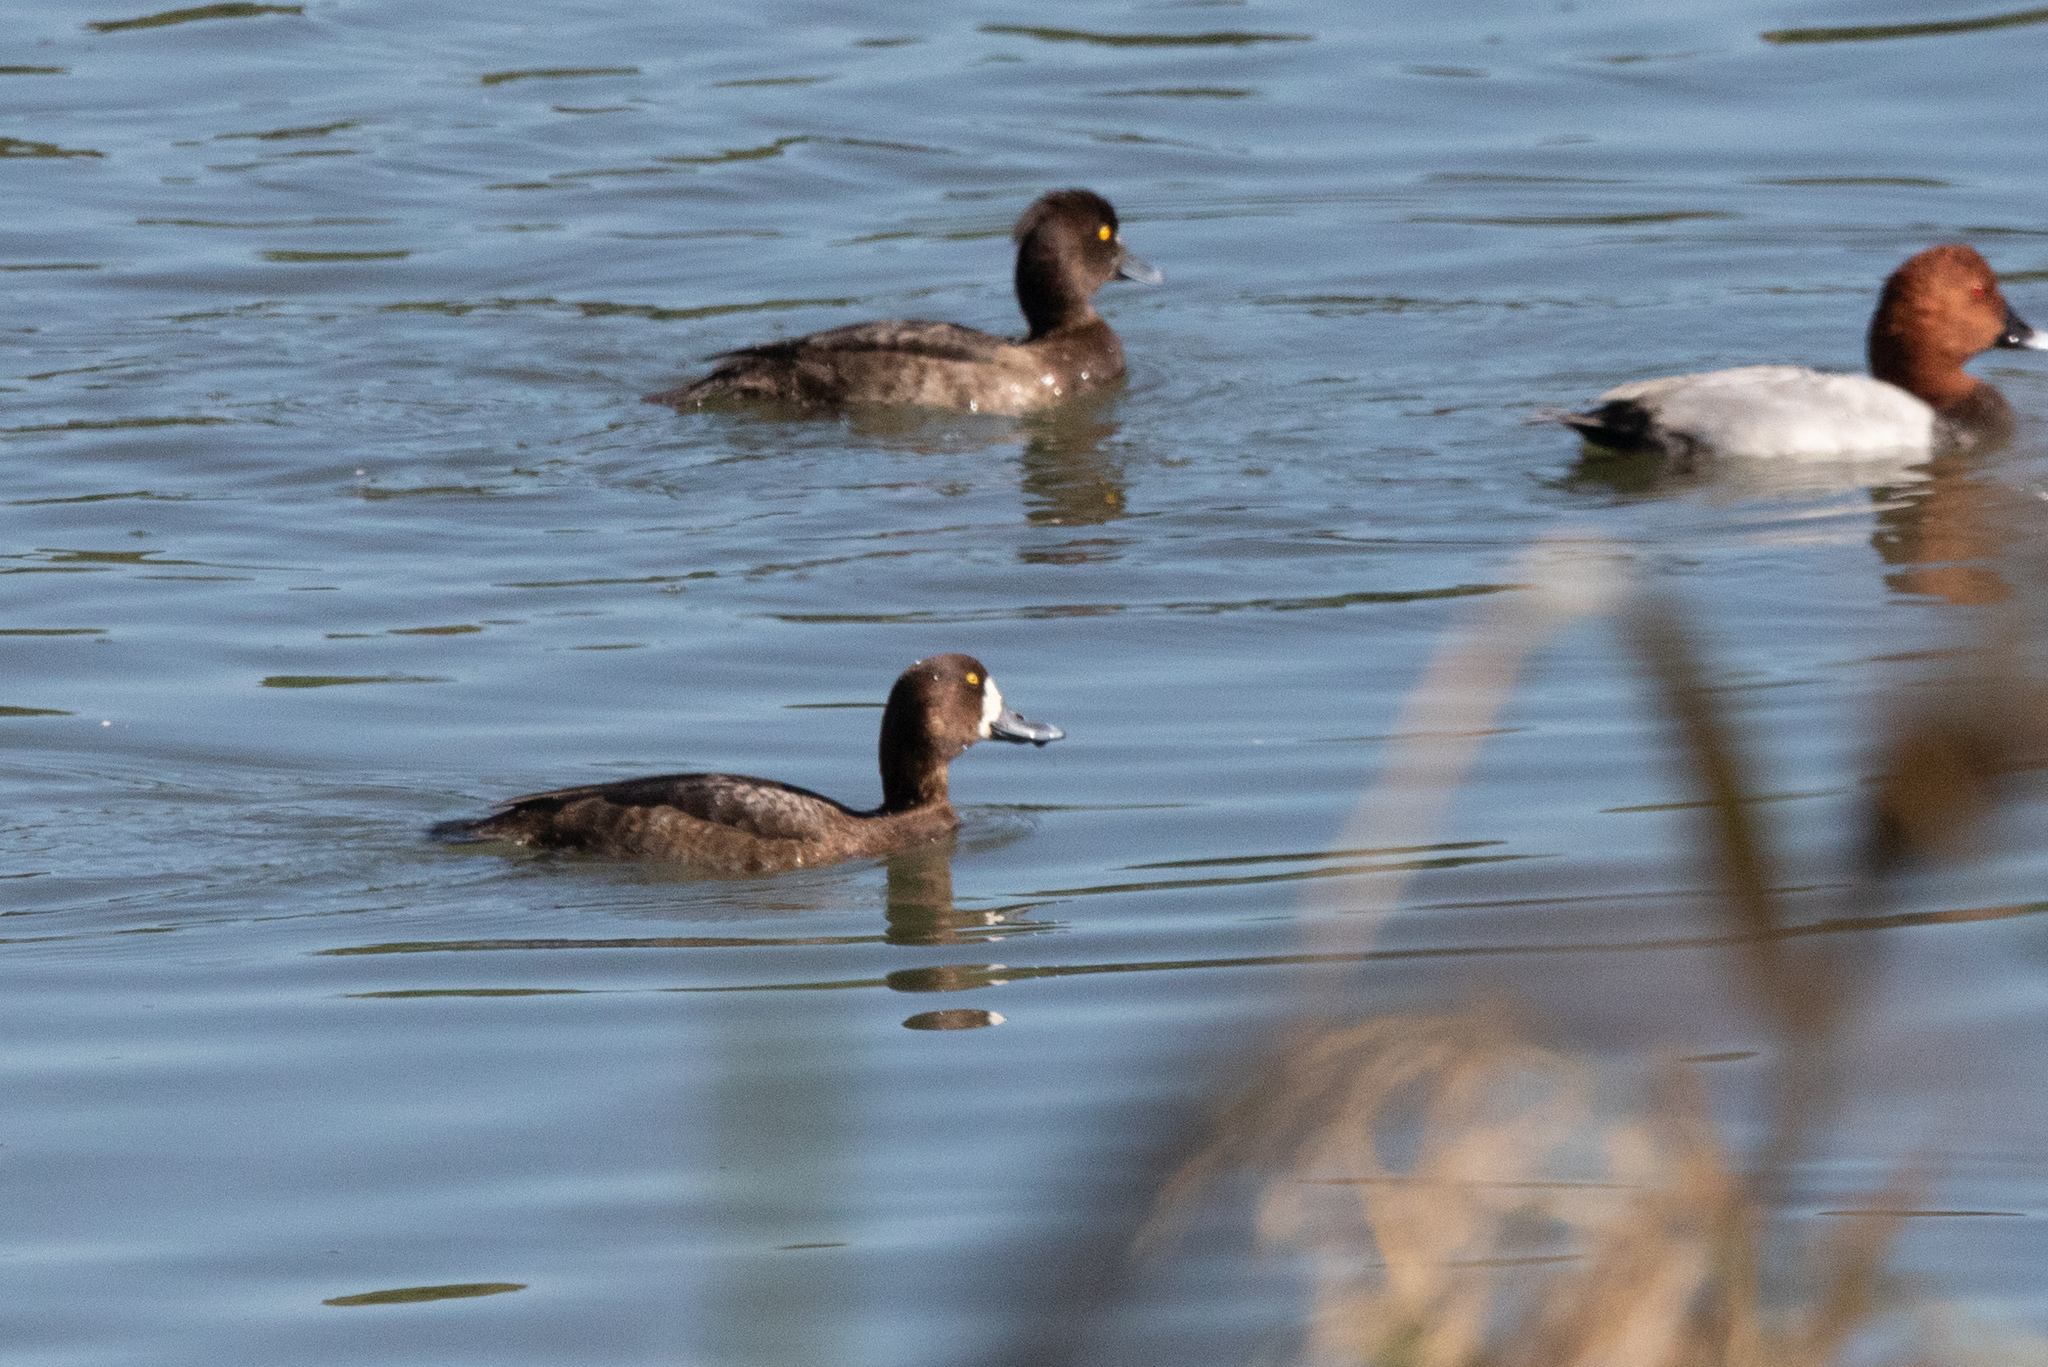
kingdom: Animalia
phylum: Chordata
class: Aves
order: Anseriformes
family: Anatidae
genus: Aythya
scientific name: Aythya marila
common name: Greater scaup
